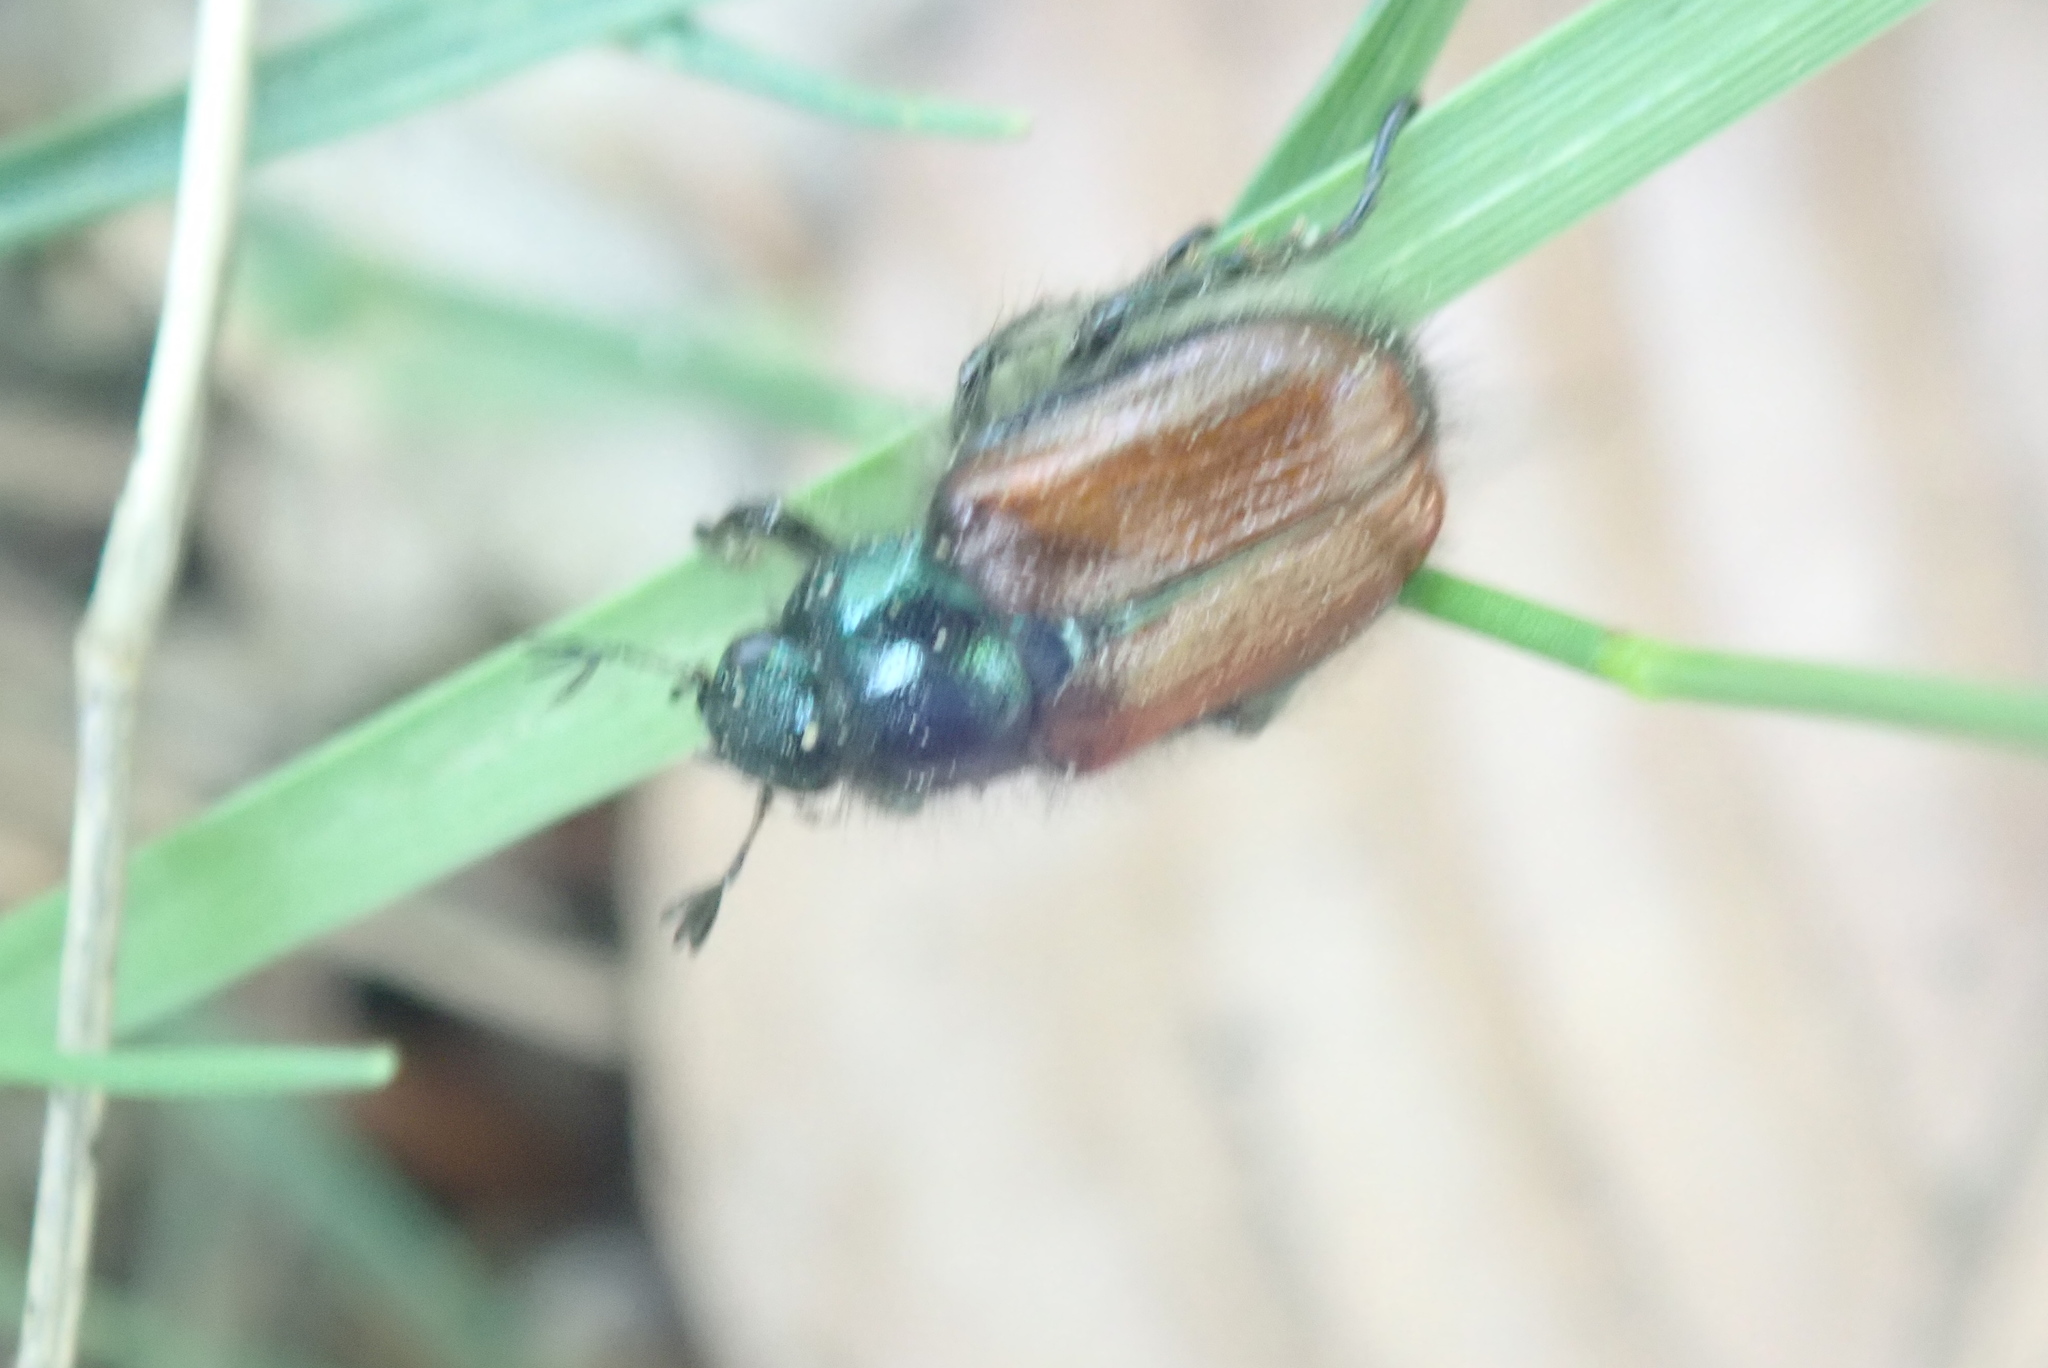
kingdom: Animalia
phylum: Arthropoda
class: Insecta
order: Coleoptera
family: Scarabaeidae
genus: Phyllopertha
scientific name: Phyllopertha horticola
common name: Garden chafer
